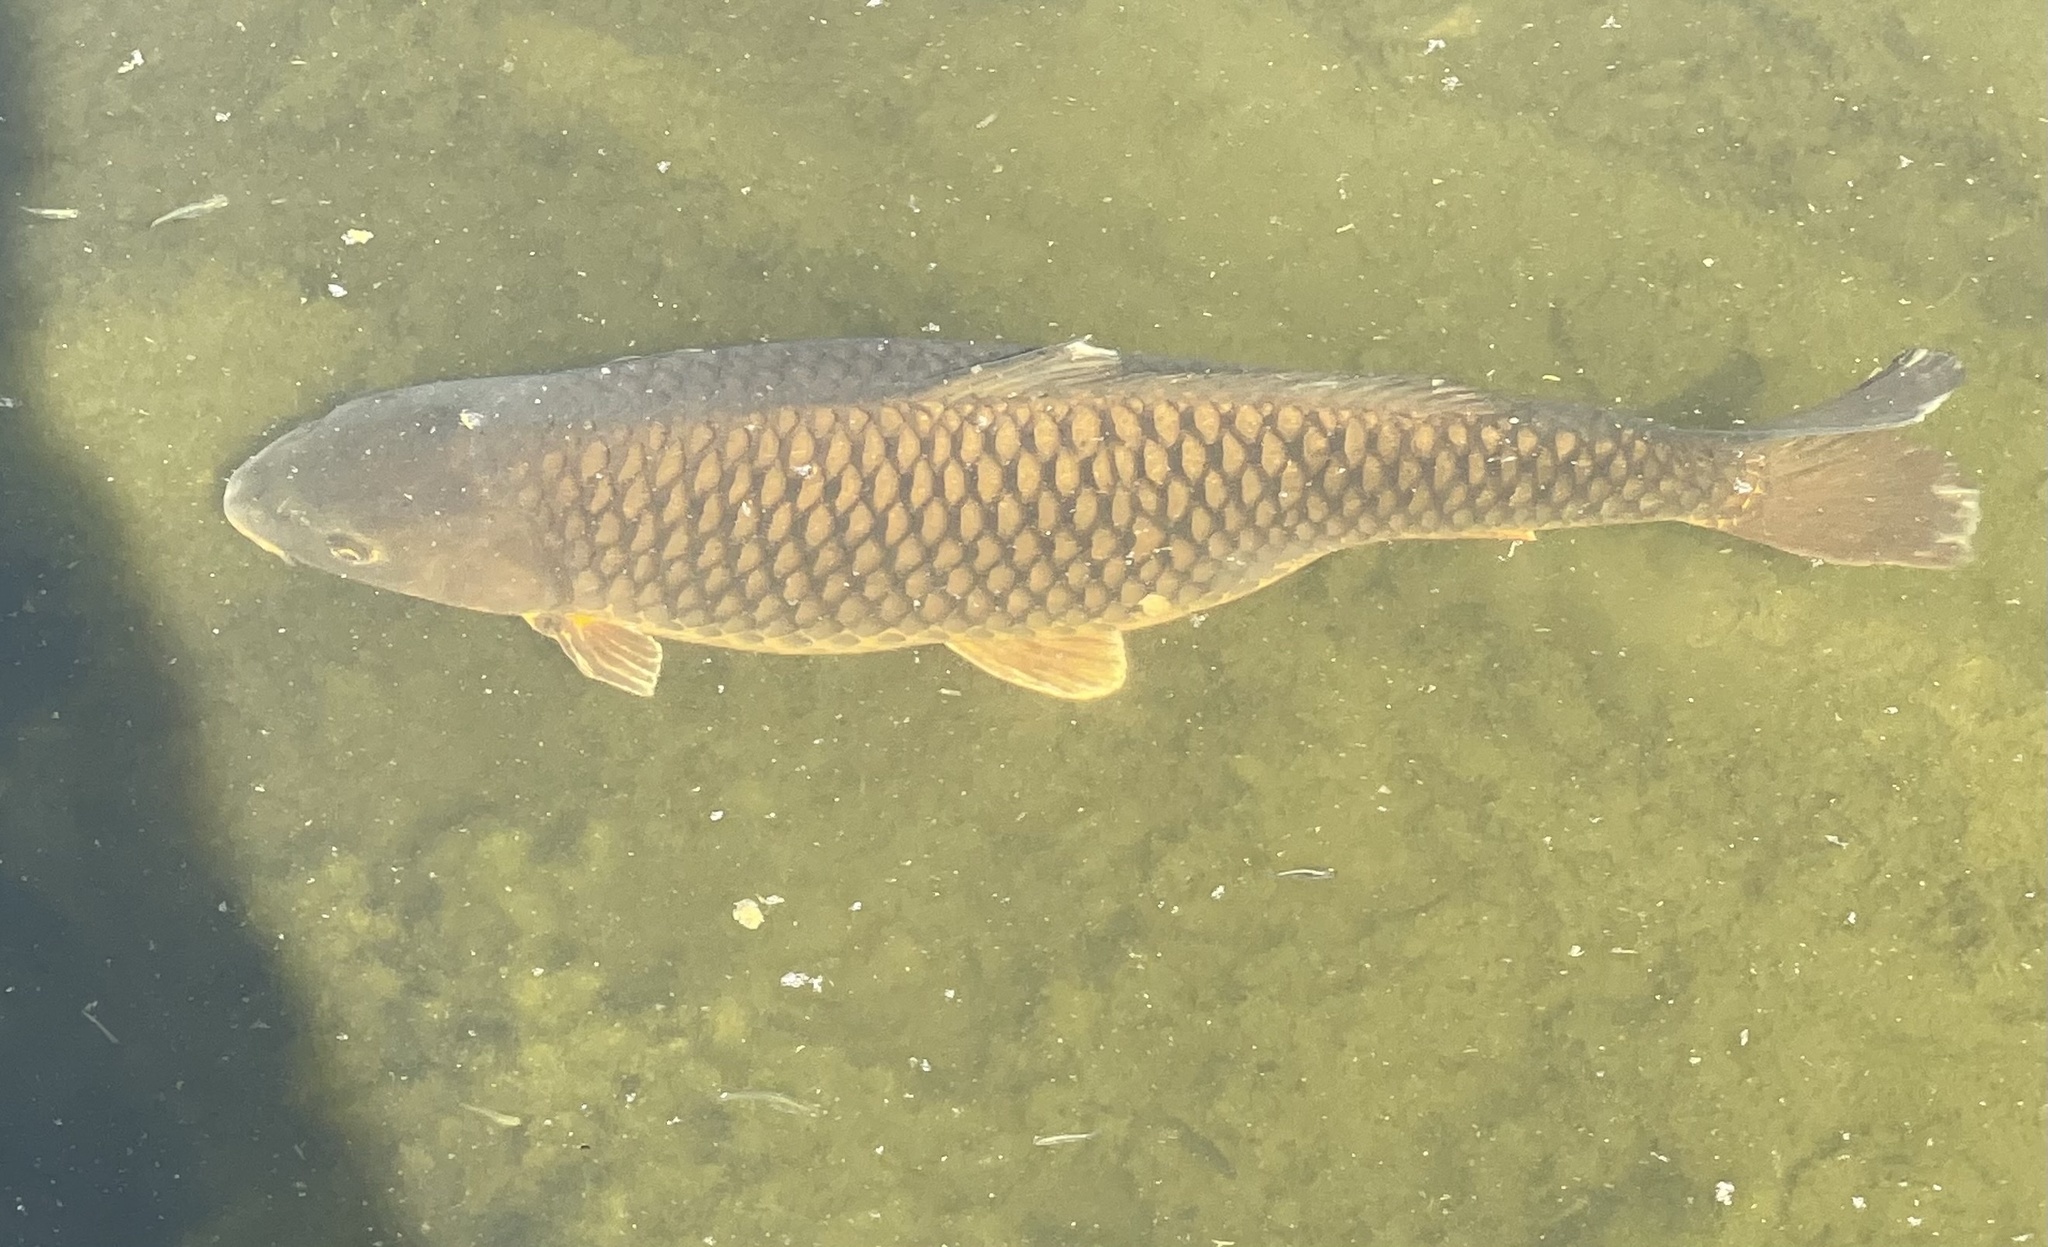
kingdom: Animalia
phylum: Chordata
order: Cypriniformes
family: Cyprinidae
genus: Cyprinus
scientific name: Cyprinus carpio
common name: Common carp
